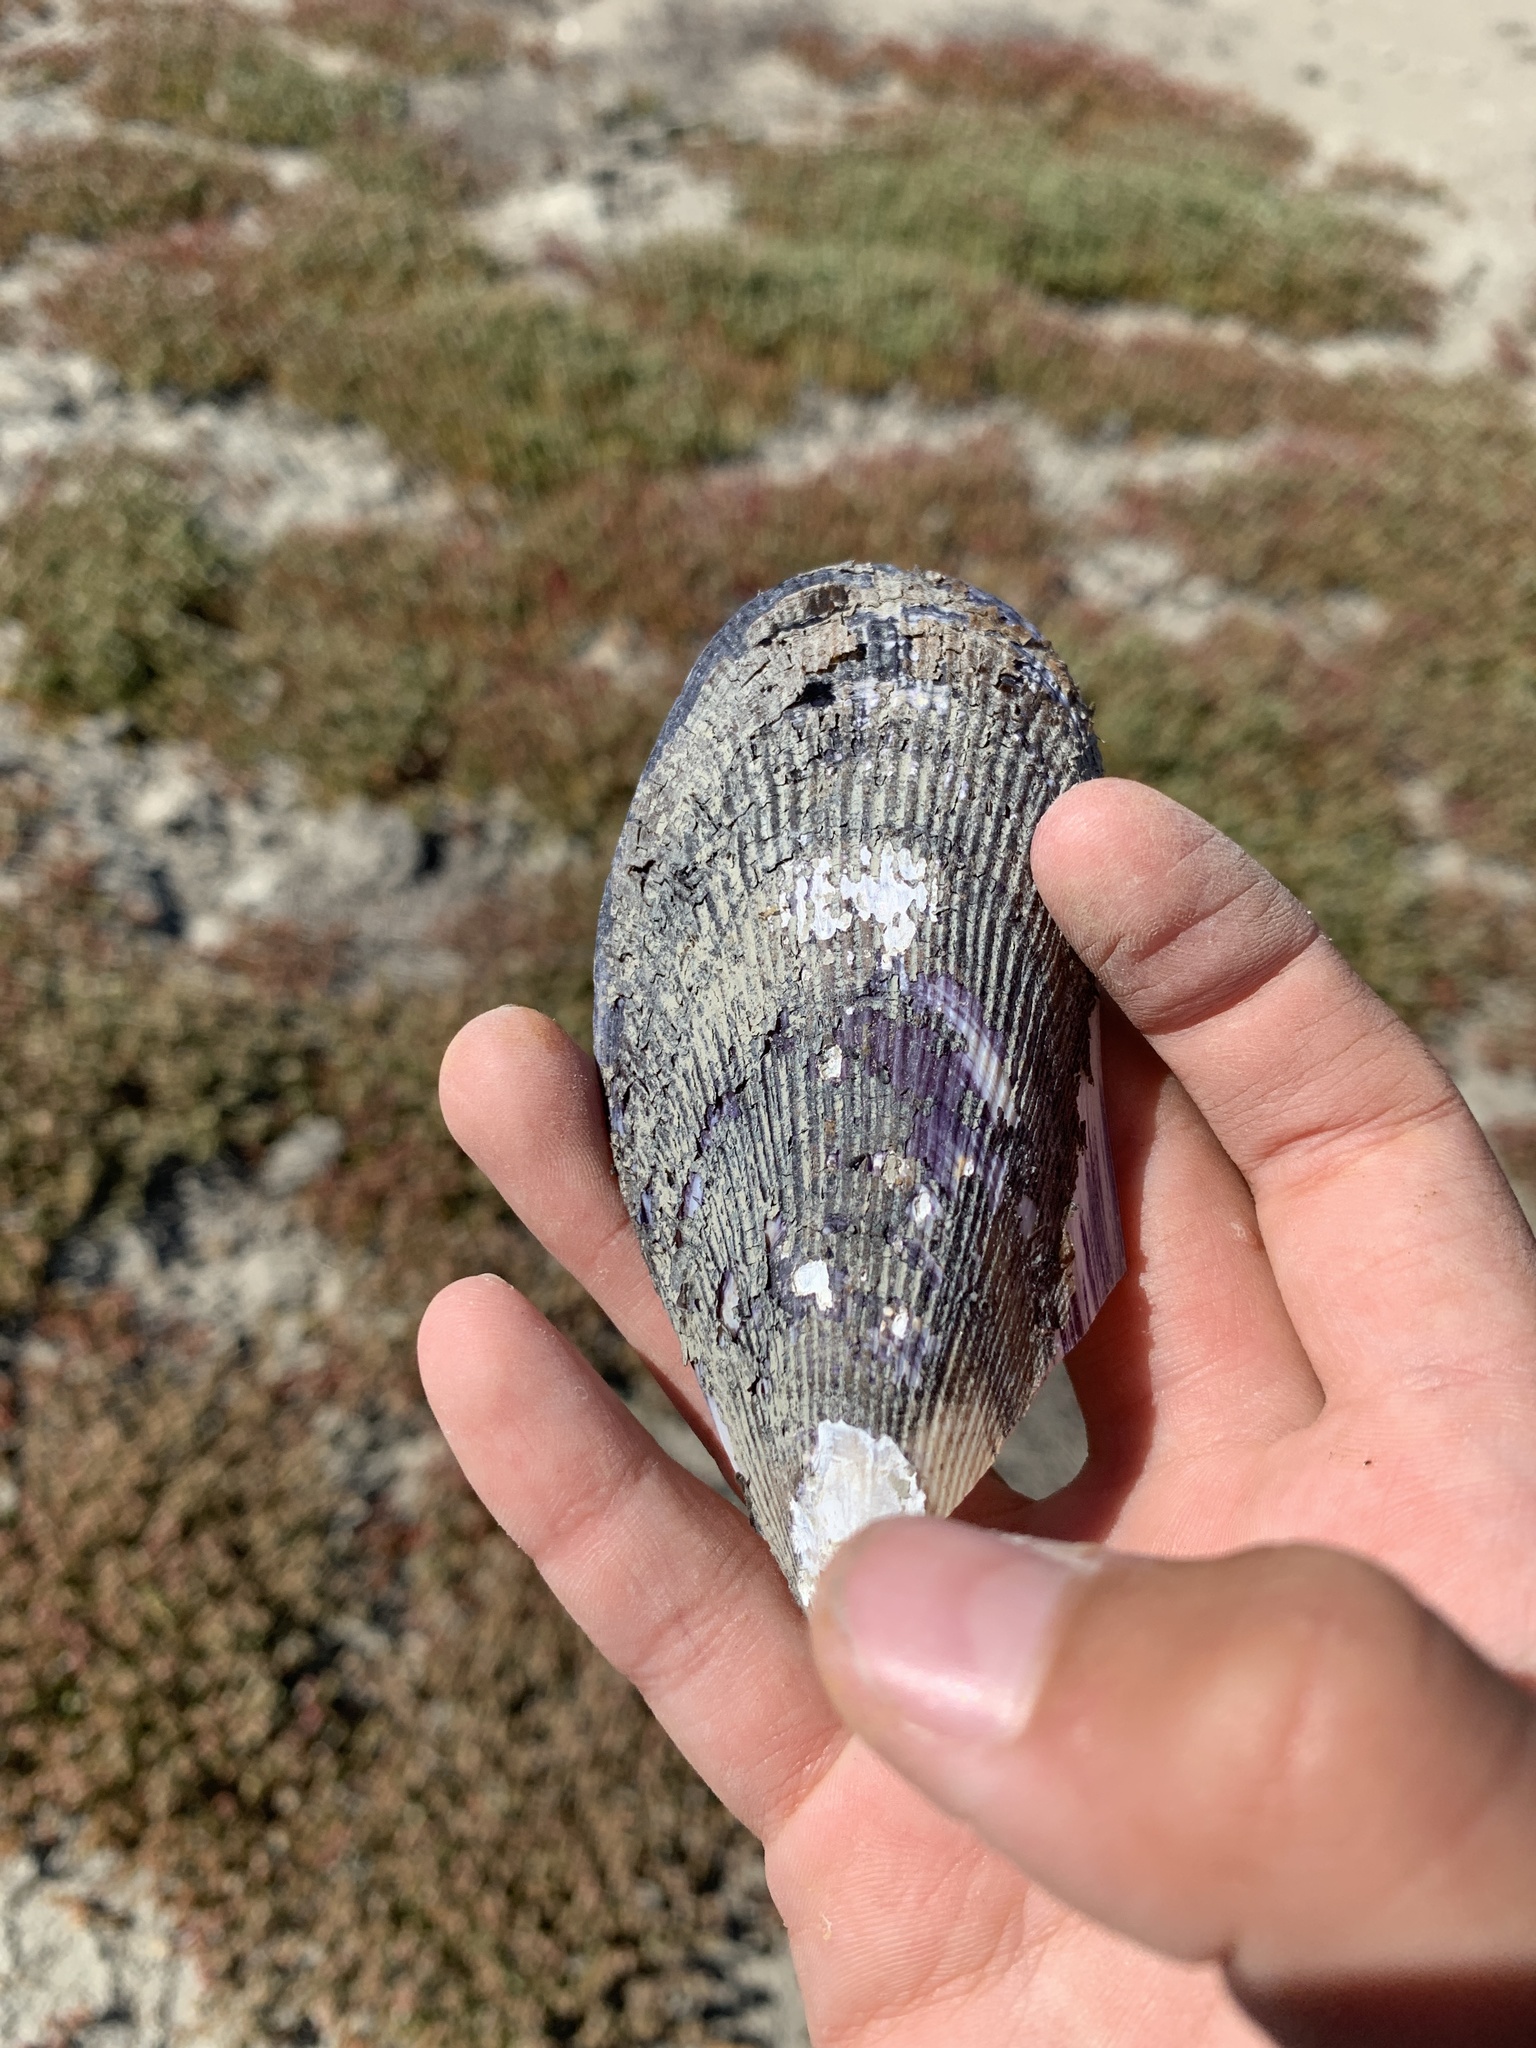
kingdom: Animalia
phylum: Mollusca
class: Bivalvia
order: Mytilida
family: Mytilidae
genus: Geukensia
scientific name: Geukensia demissa
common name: Ribbed mussel
